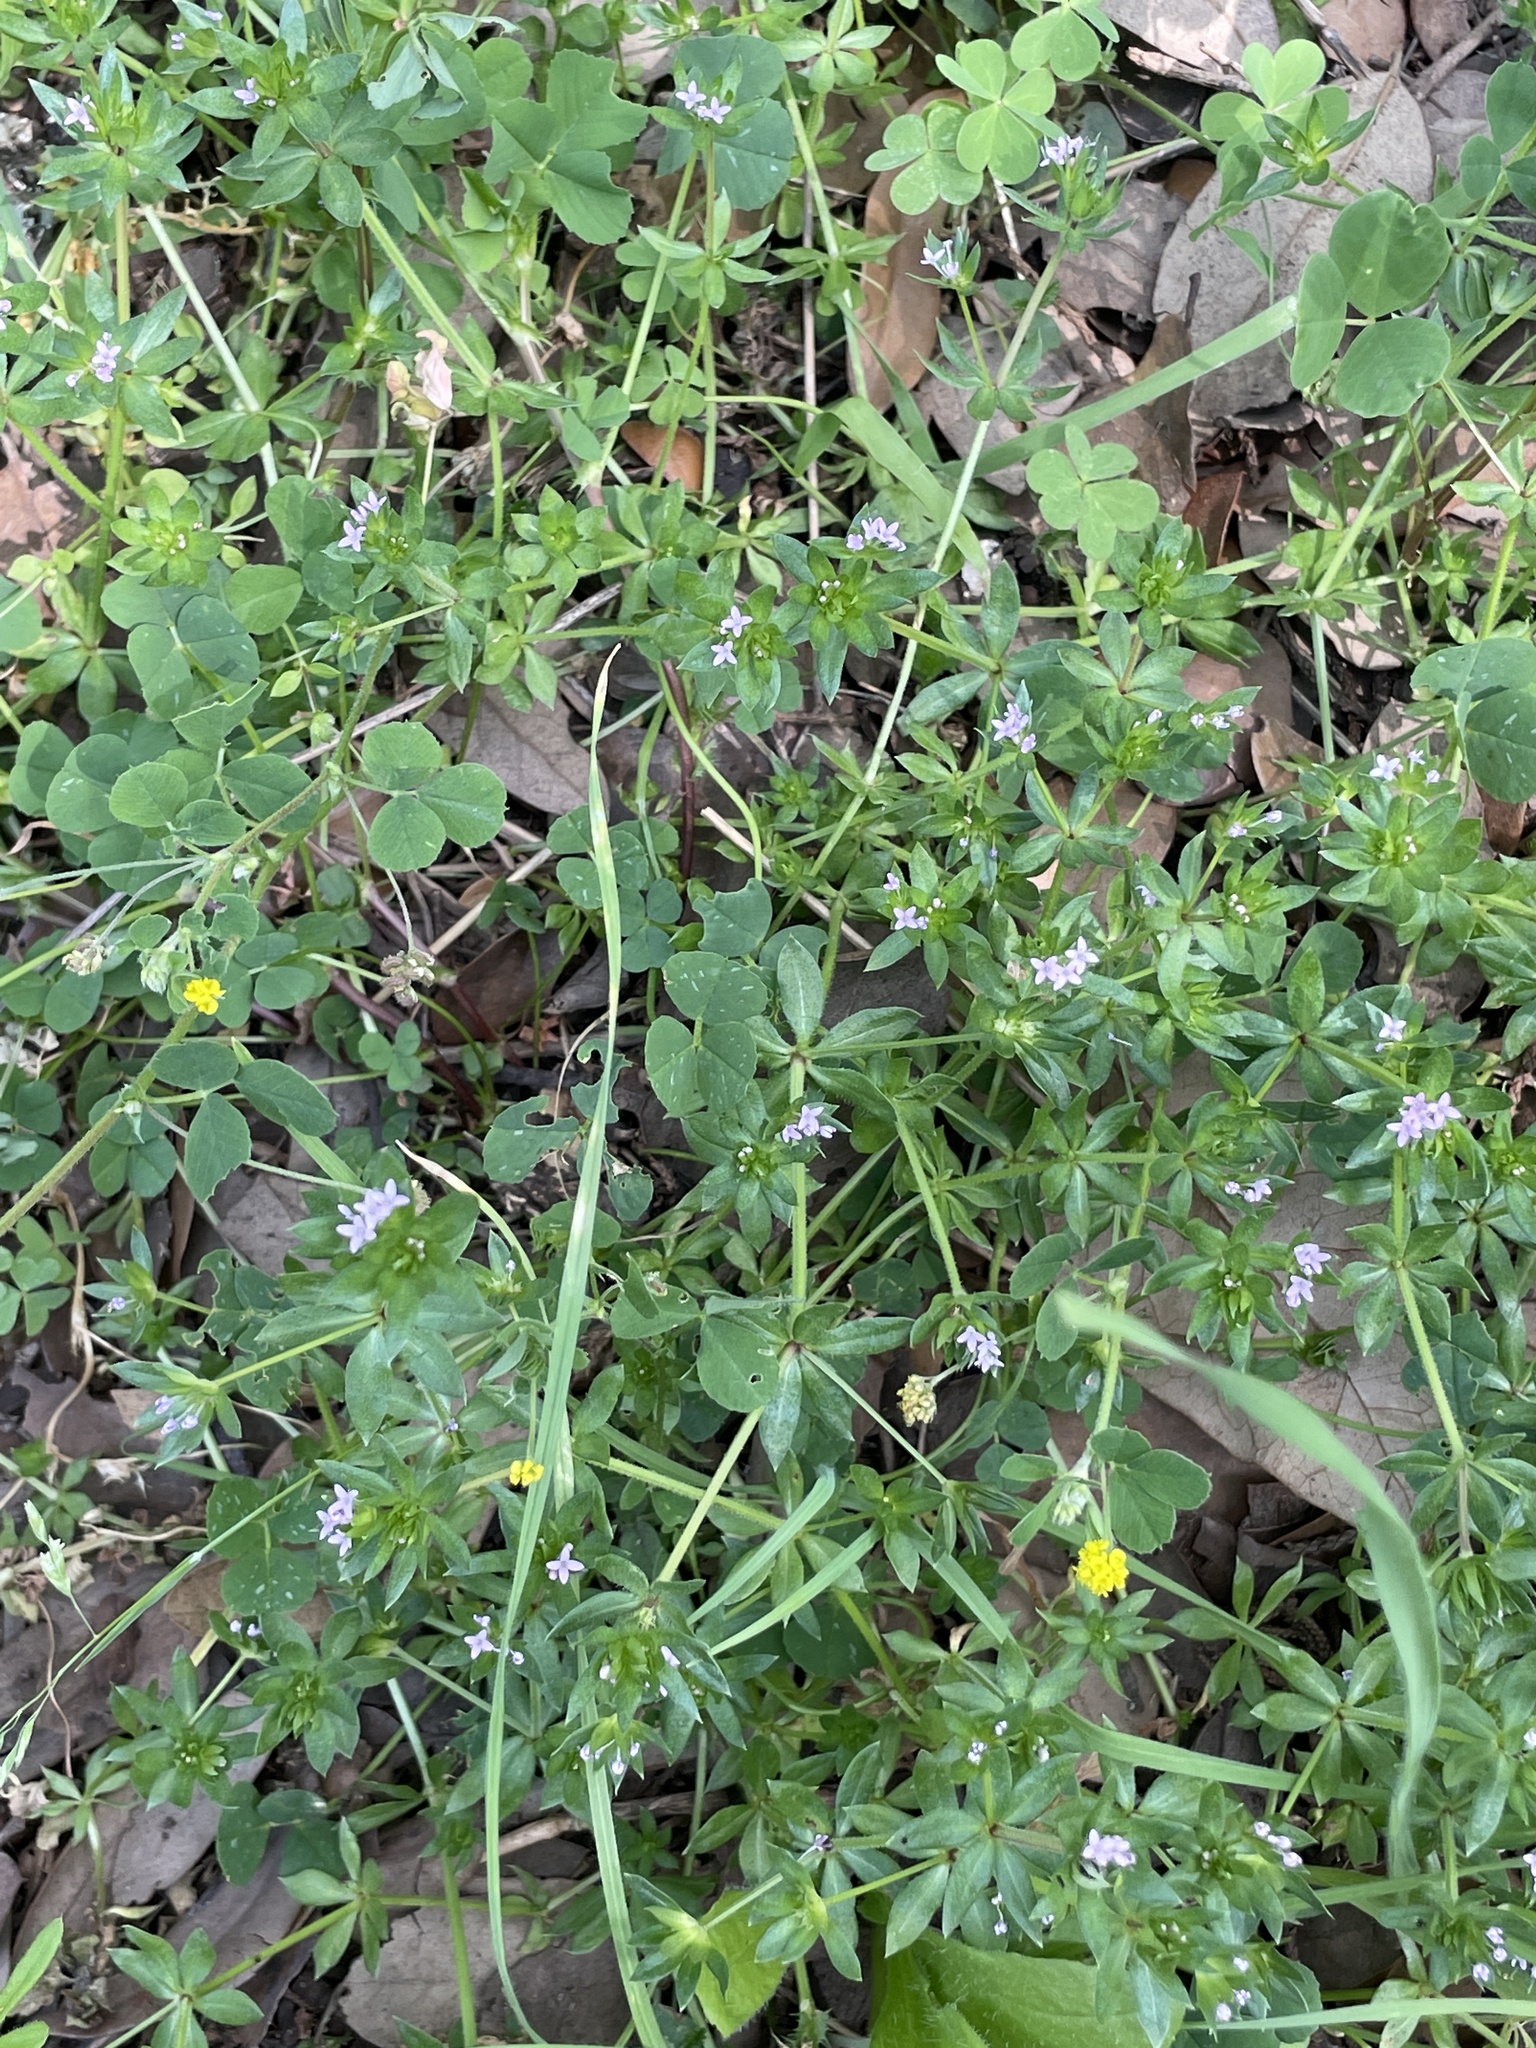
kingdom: Plantae
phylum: Tracheophyta
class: Magnoliopsida
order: Gentianales
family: Rubiaceae
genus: Sherardia
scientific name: Sherardia arvensis
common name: Field madder
